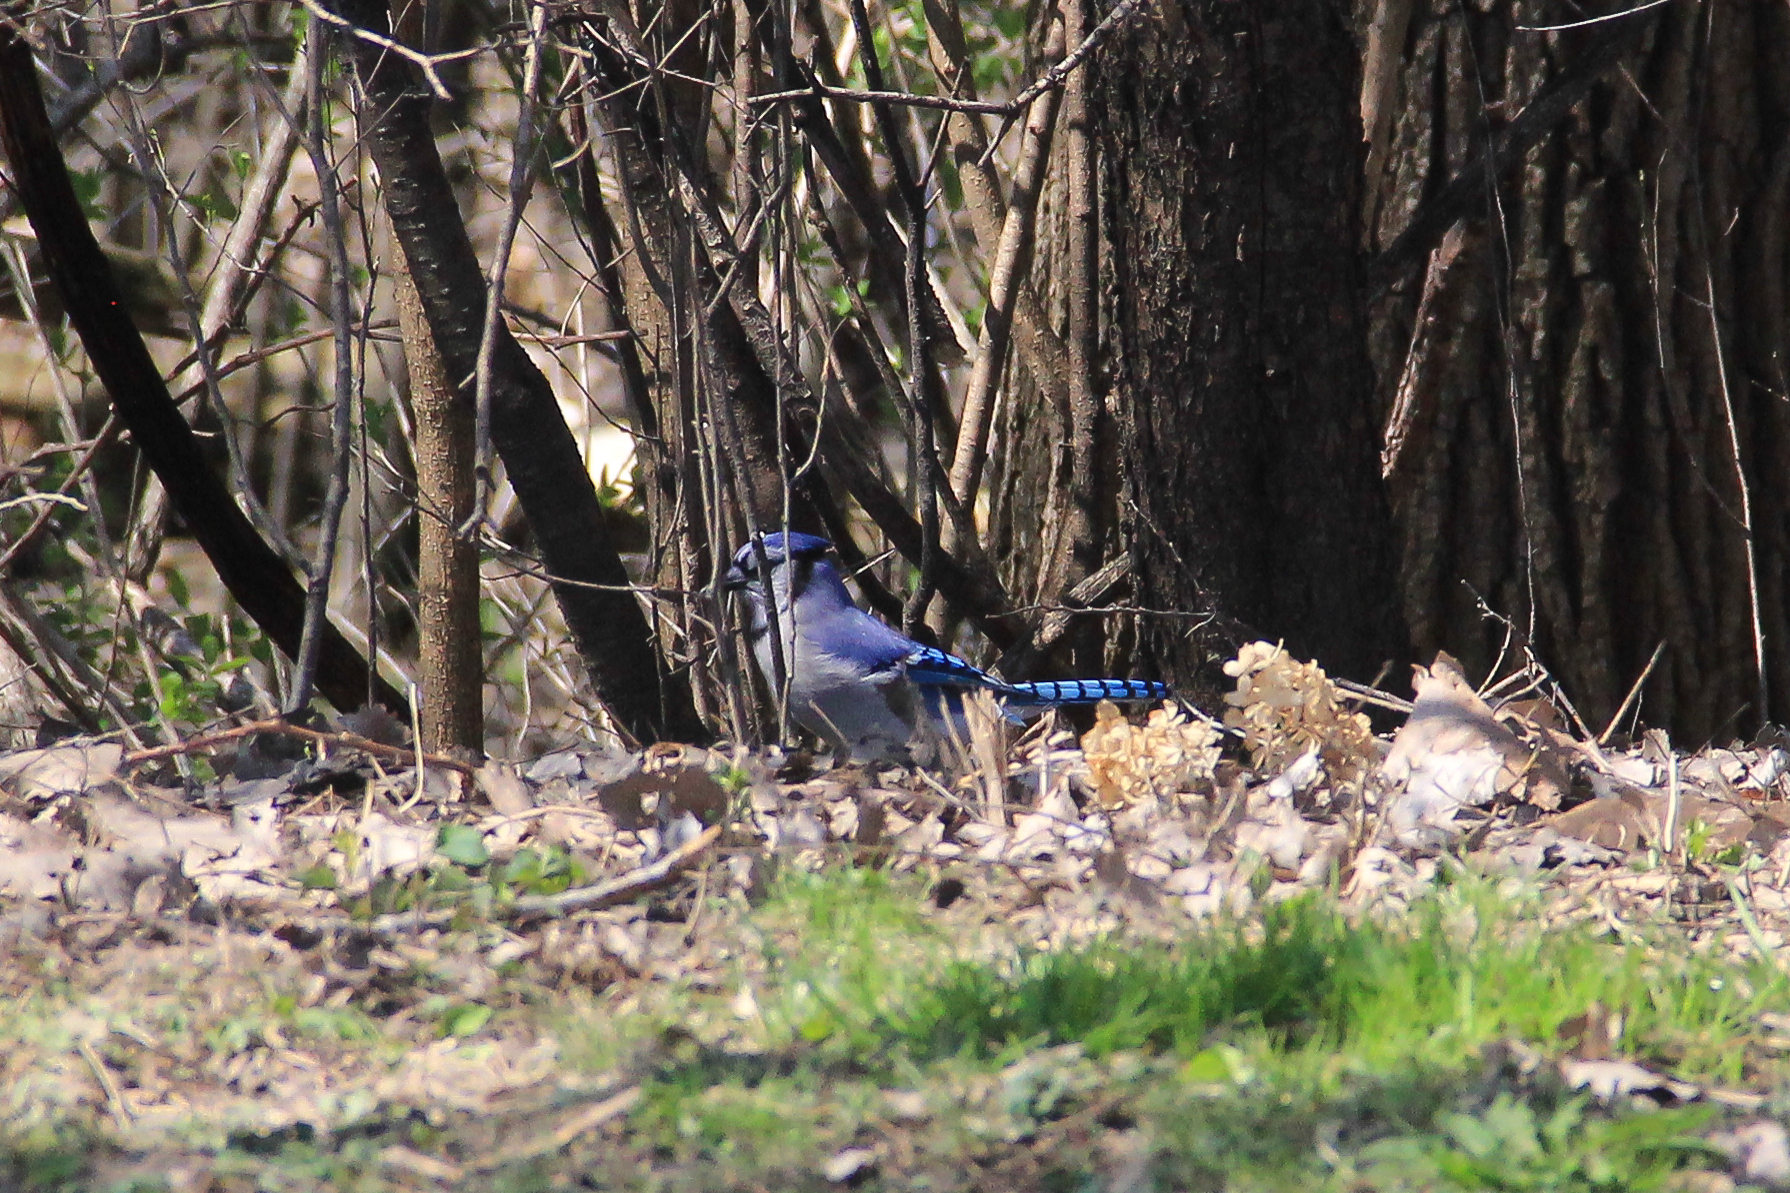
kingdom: Animalia
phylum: Chordata
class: Aves
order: Passeriformes
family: Corvidae
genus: Cyanocitta
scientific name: Cyanocitta cristata
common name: Blue jay
